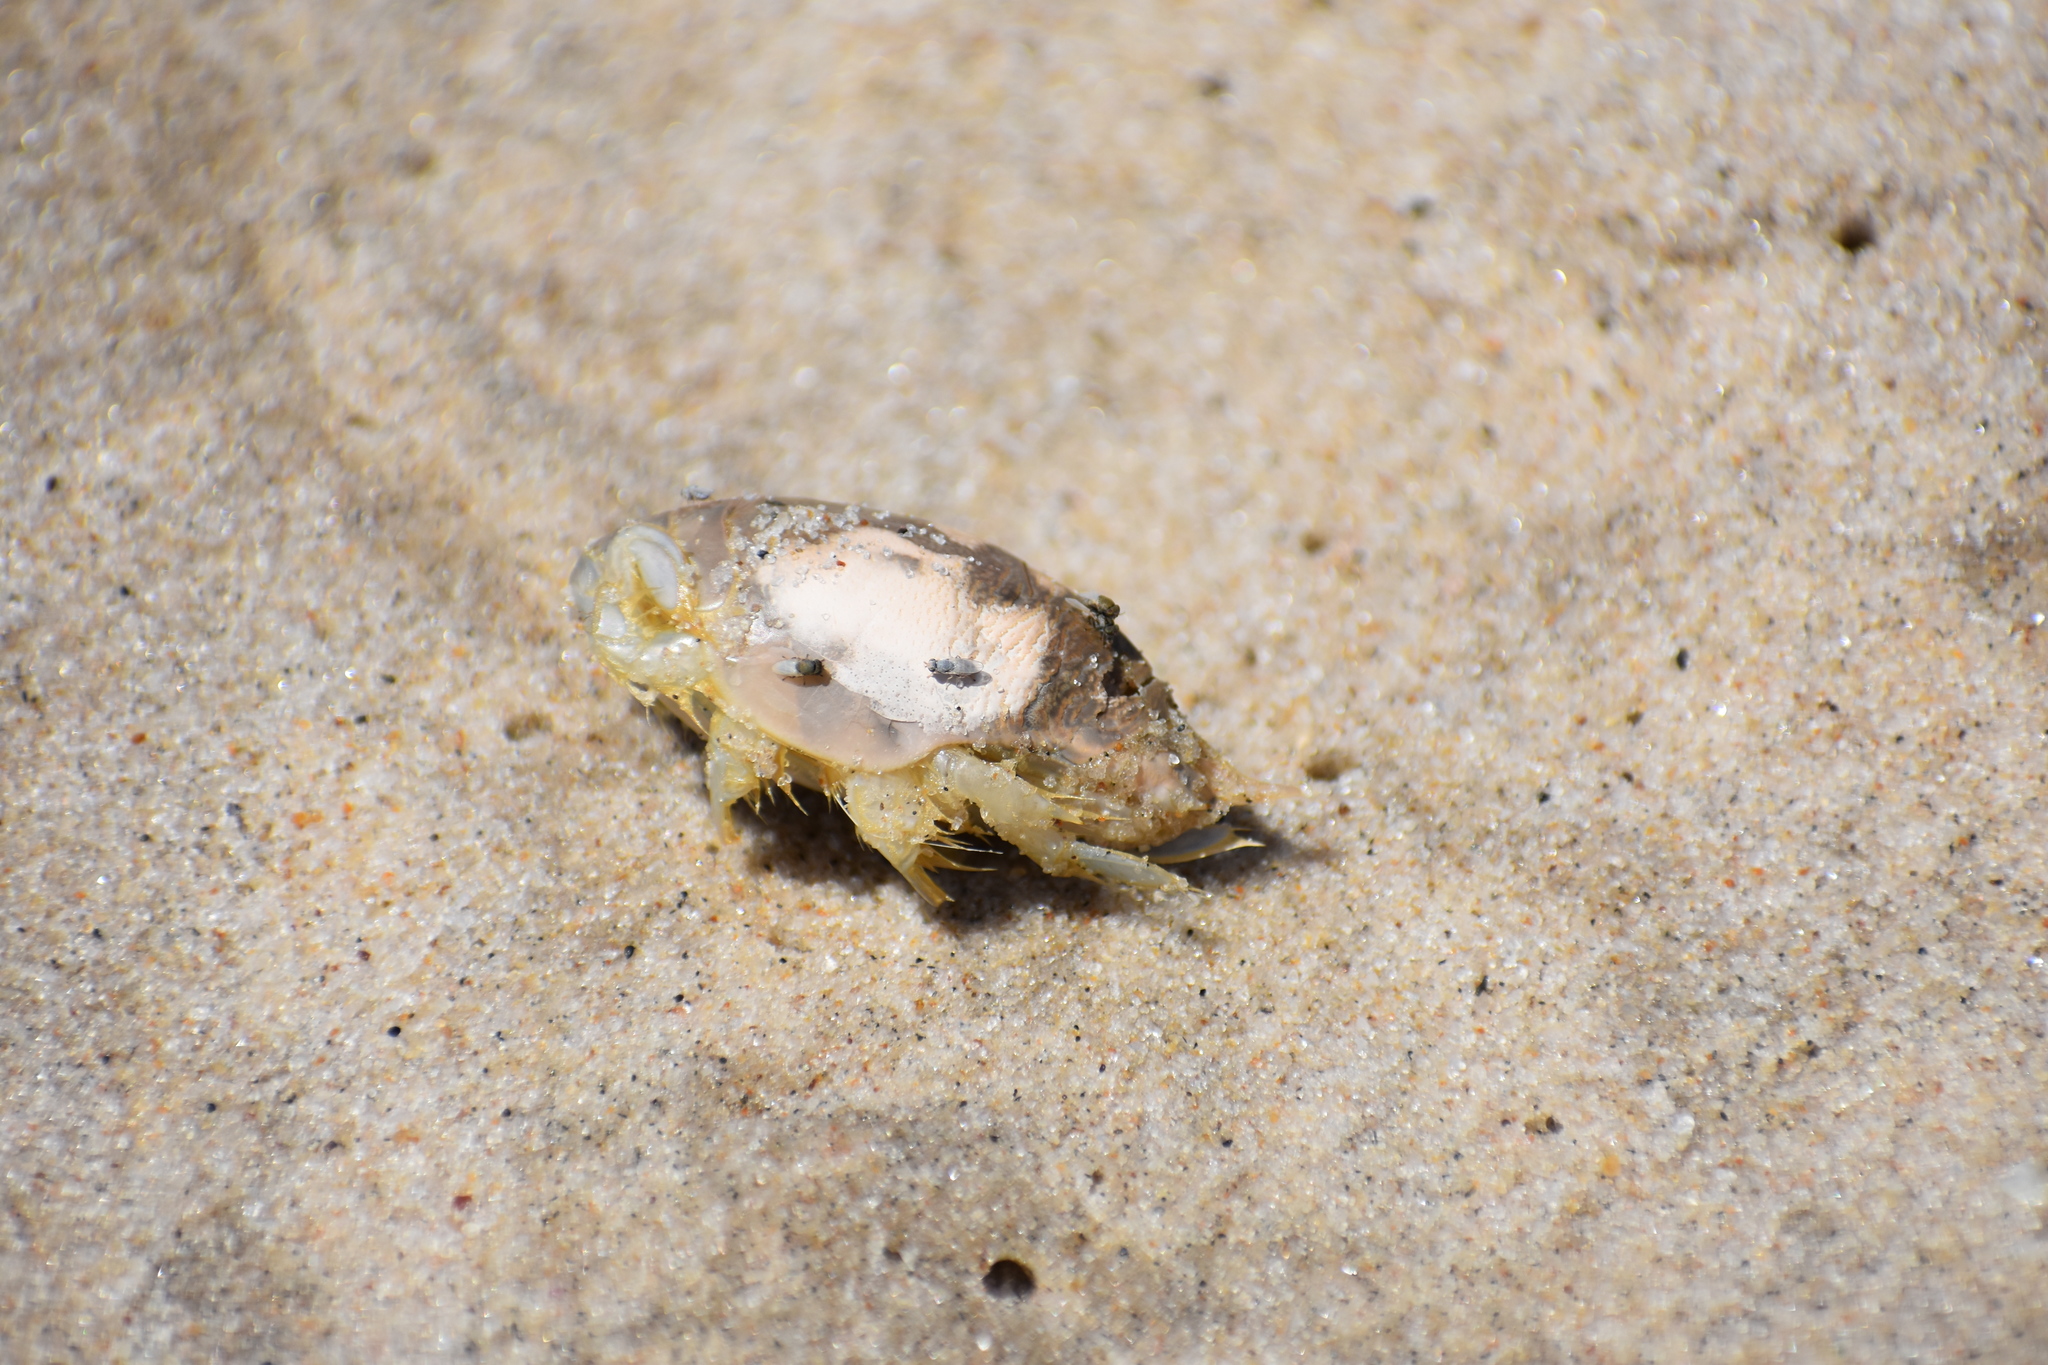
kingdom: Animalia
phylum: Arthropoda
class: Malacostraca
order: Decapoda
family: Hippidae
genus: Emerita
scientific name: Emerita talpoida
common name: Atlantic sand crab
